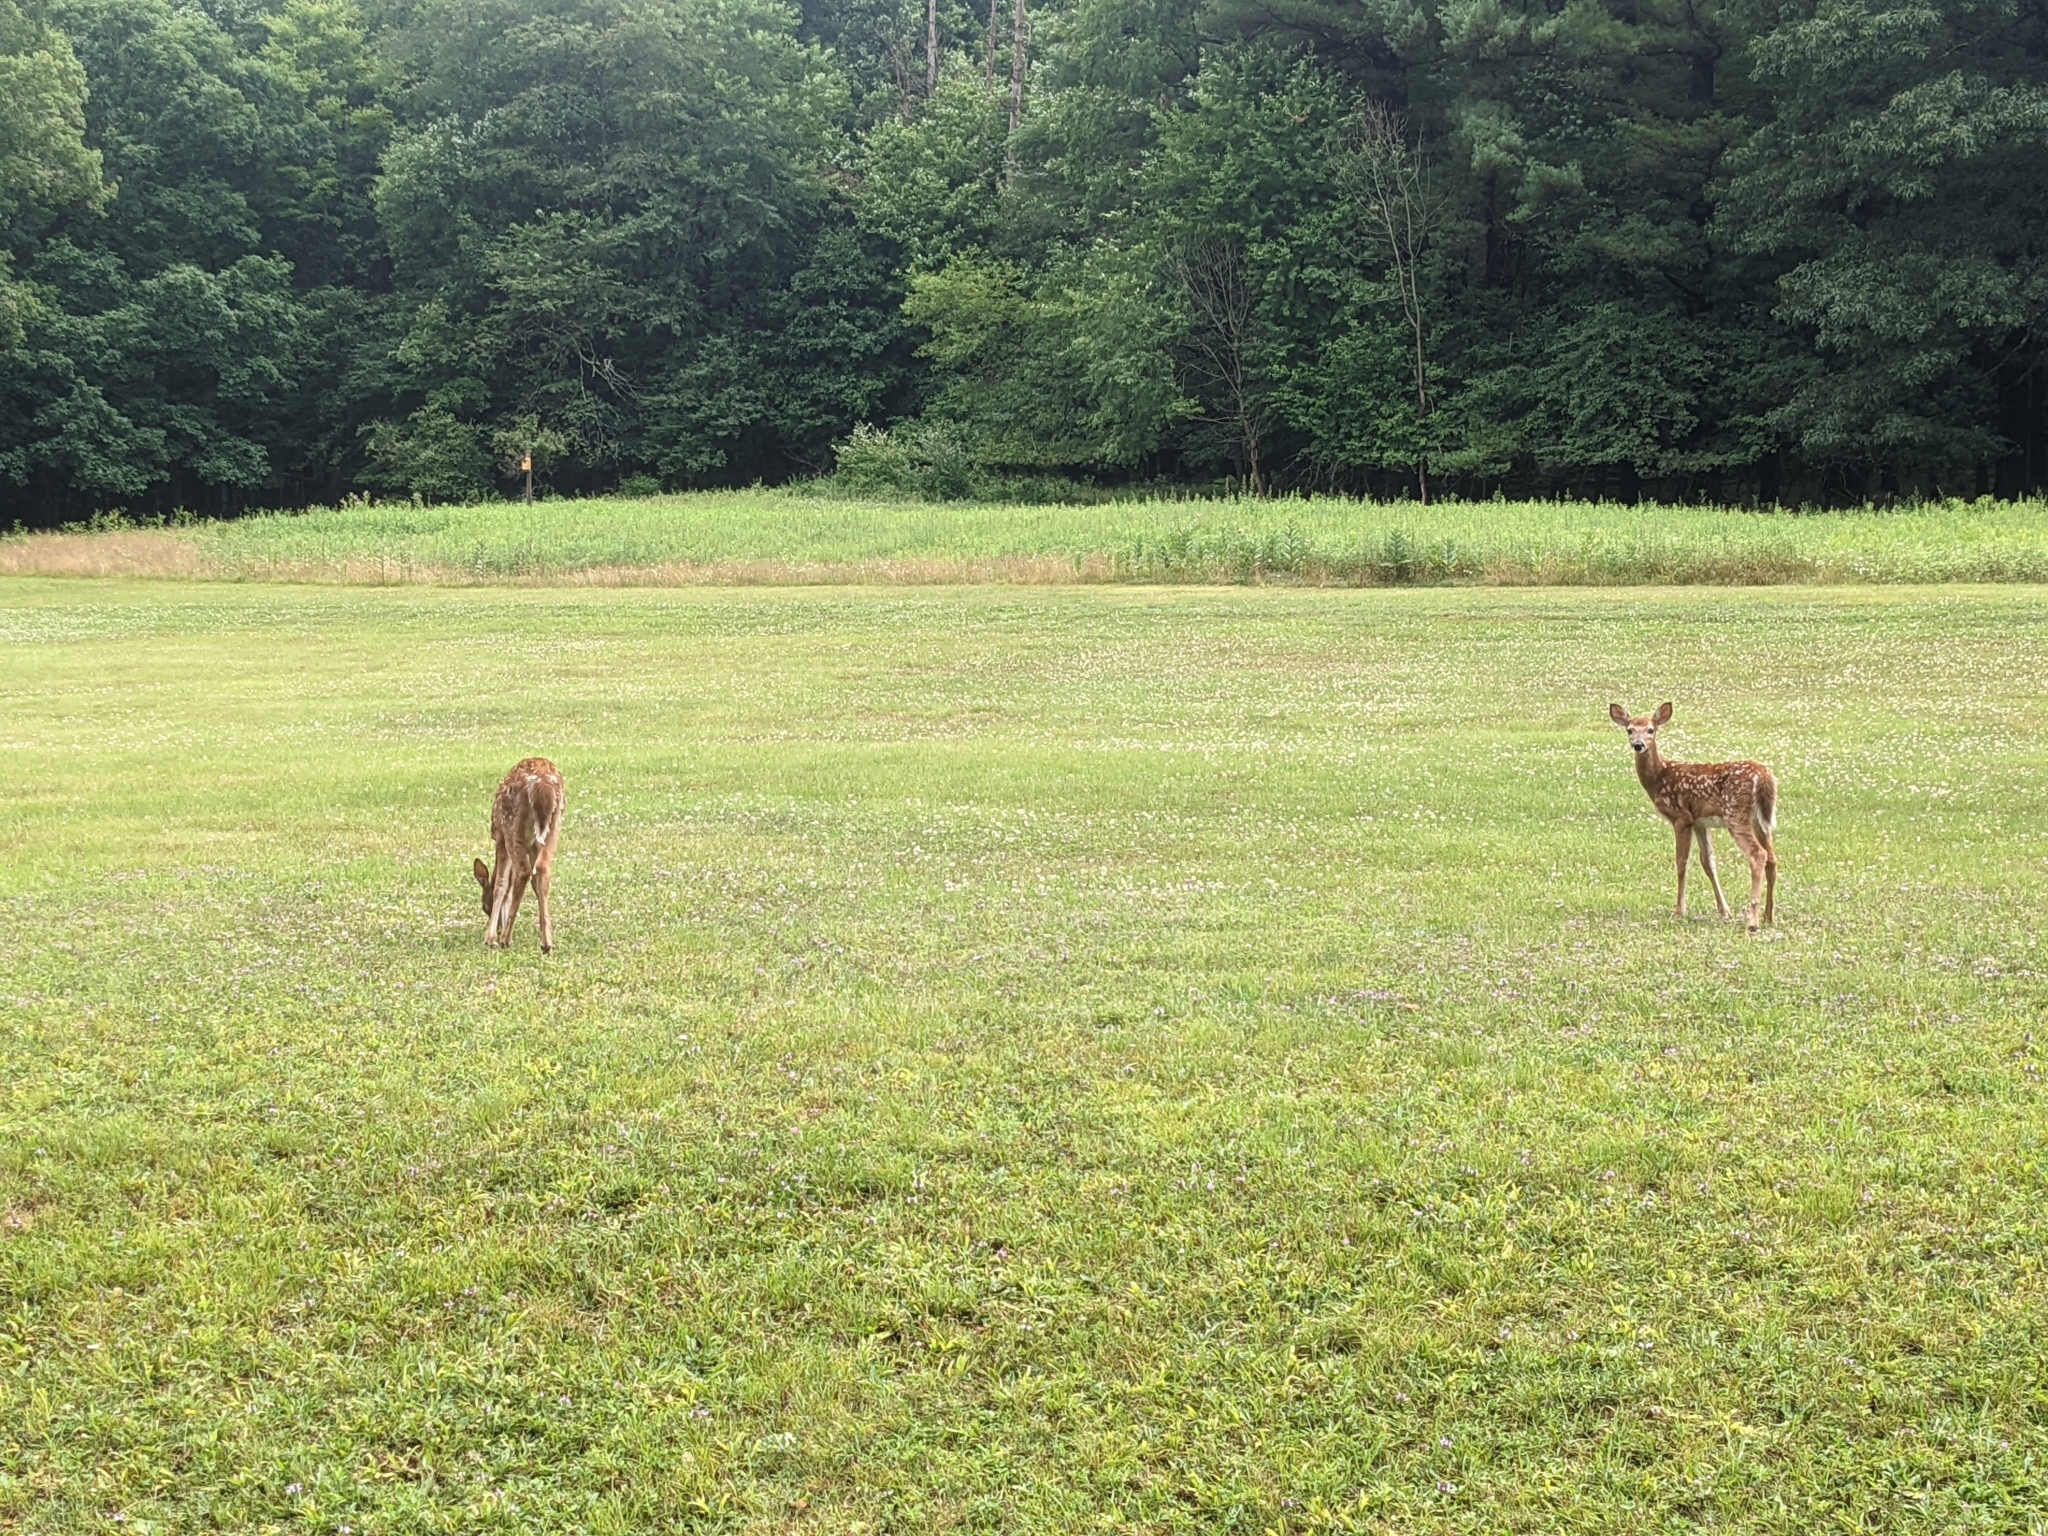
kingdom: Animalia
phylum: Chordata
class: Mammalia
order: Artiodactyla
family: Cervidae
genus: Odocoileus
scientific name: Odocoileus virginianus
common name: White-tailed deer
